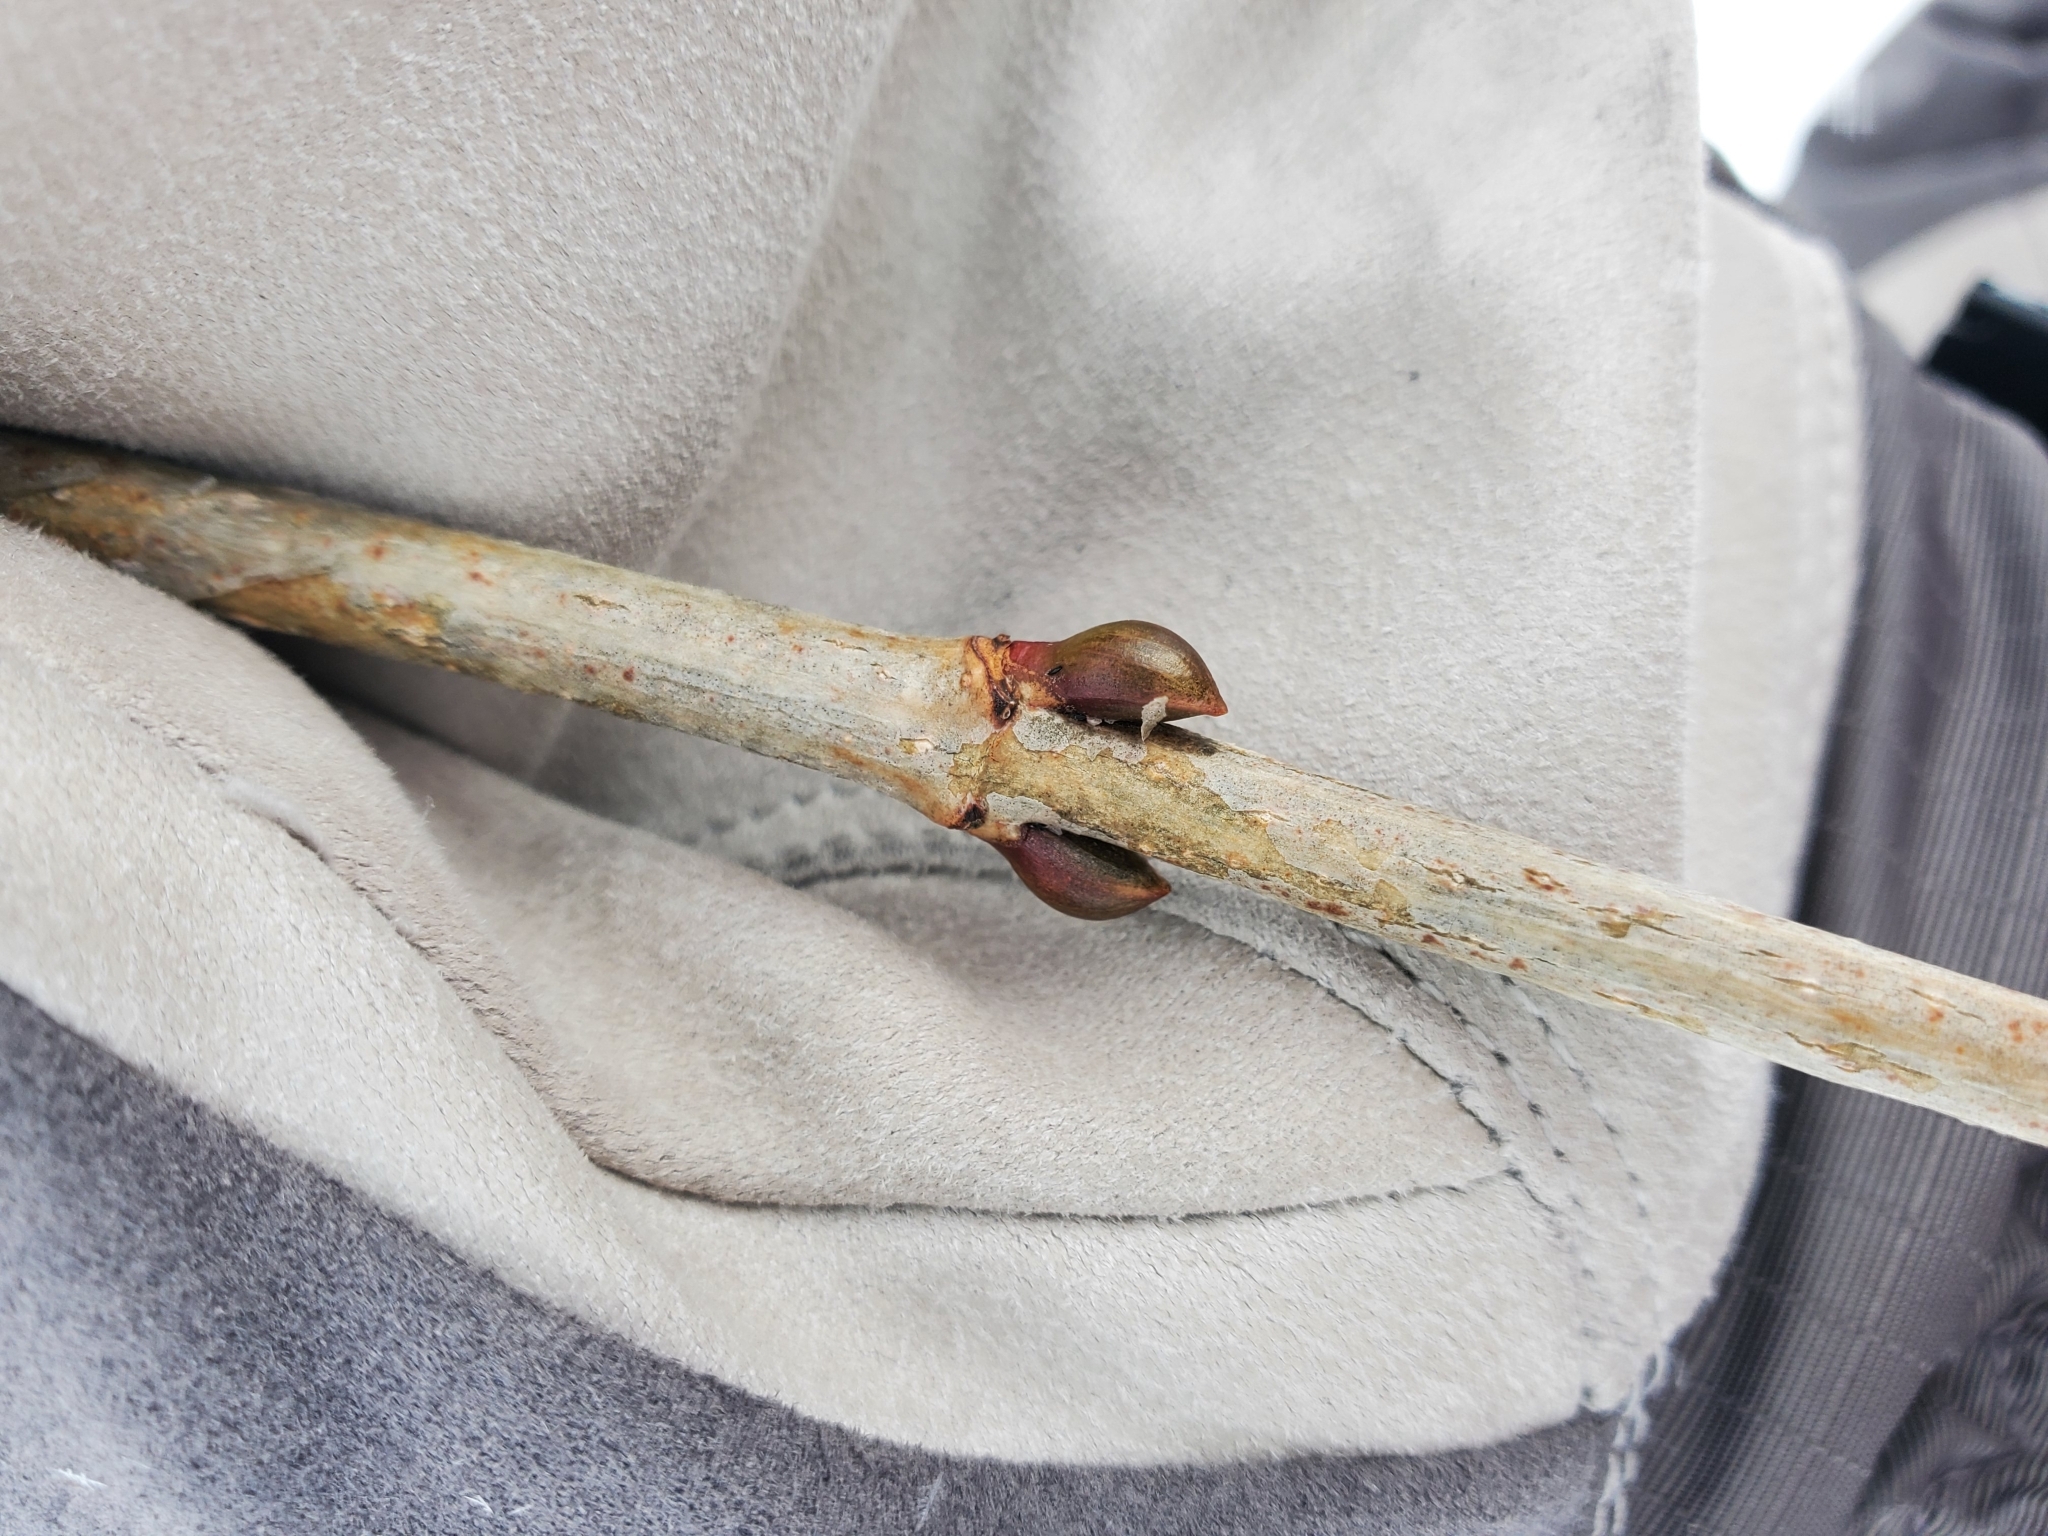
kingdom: Plantae
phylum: Tracheophyta
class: Magnoliopsida
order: Dipsacales
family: Viburnaceae
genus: Viburnum
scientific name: Viburnum opulus
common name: Guelder-rose
